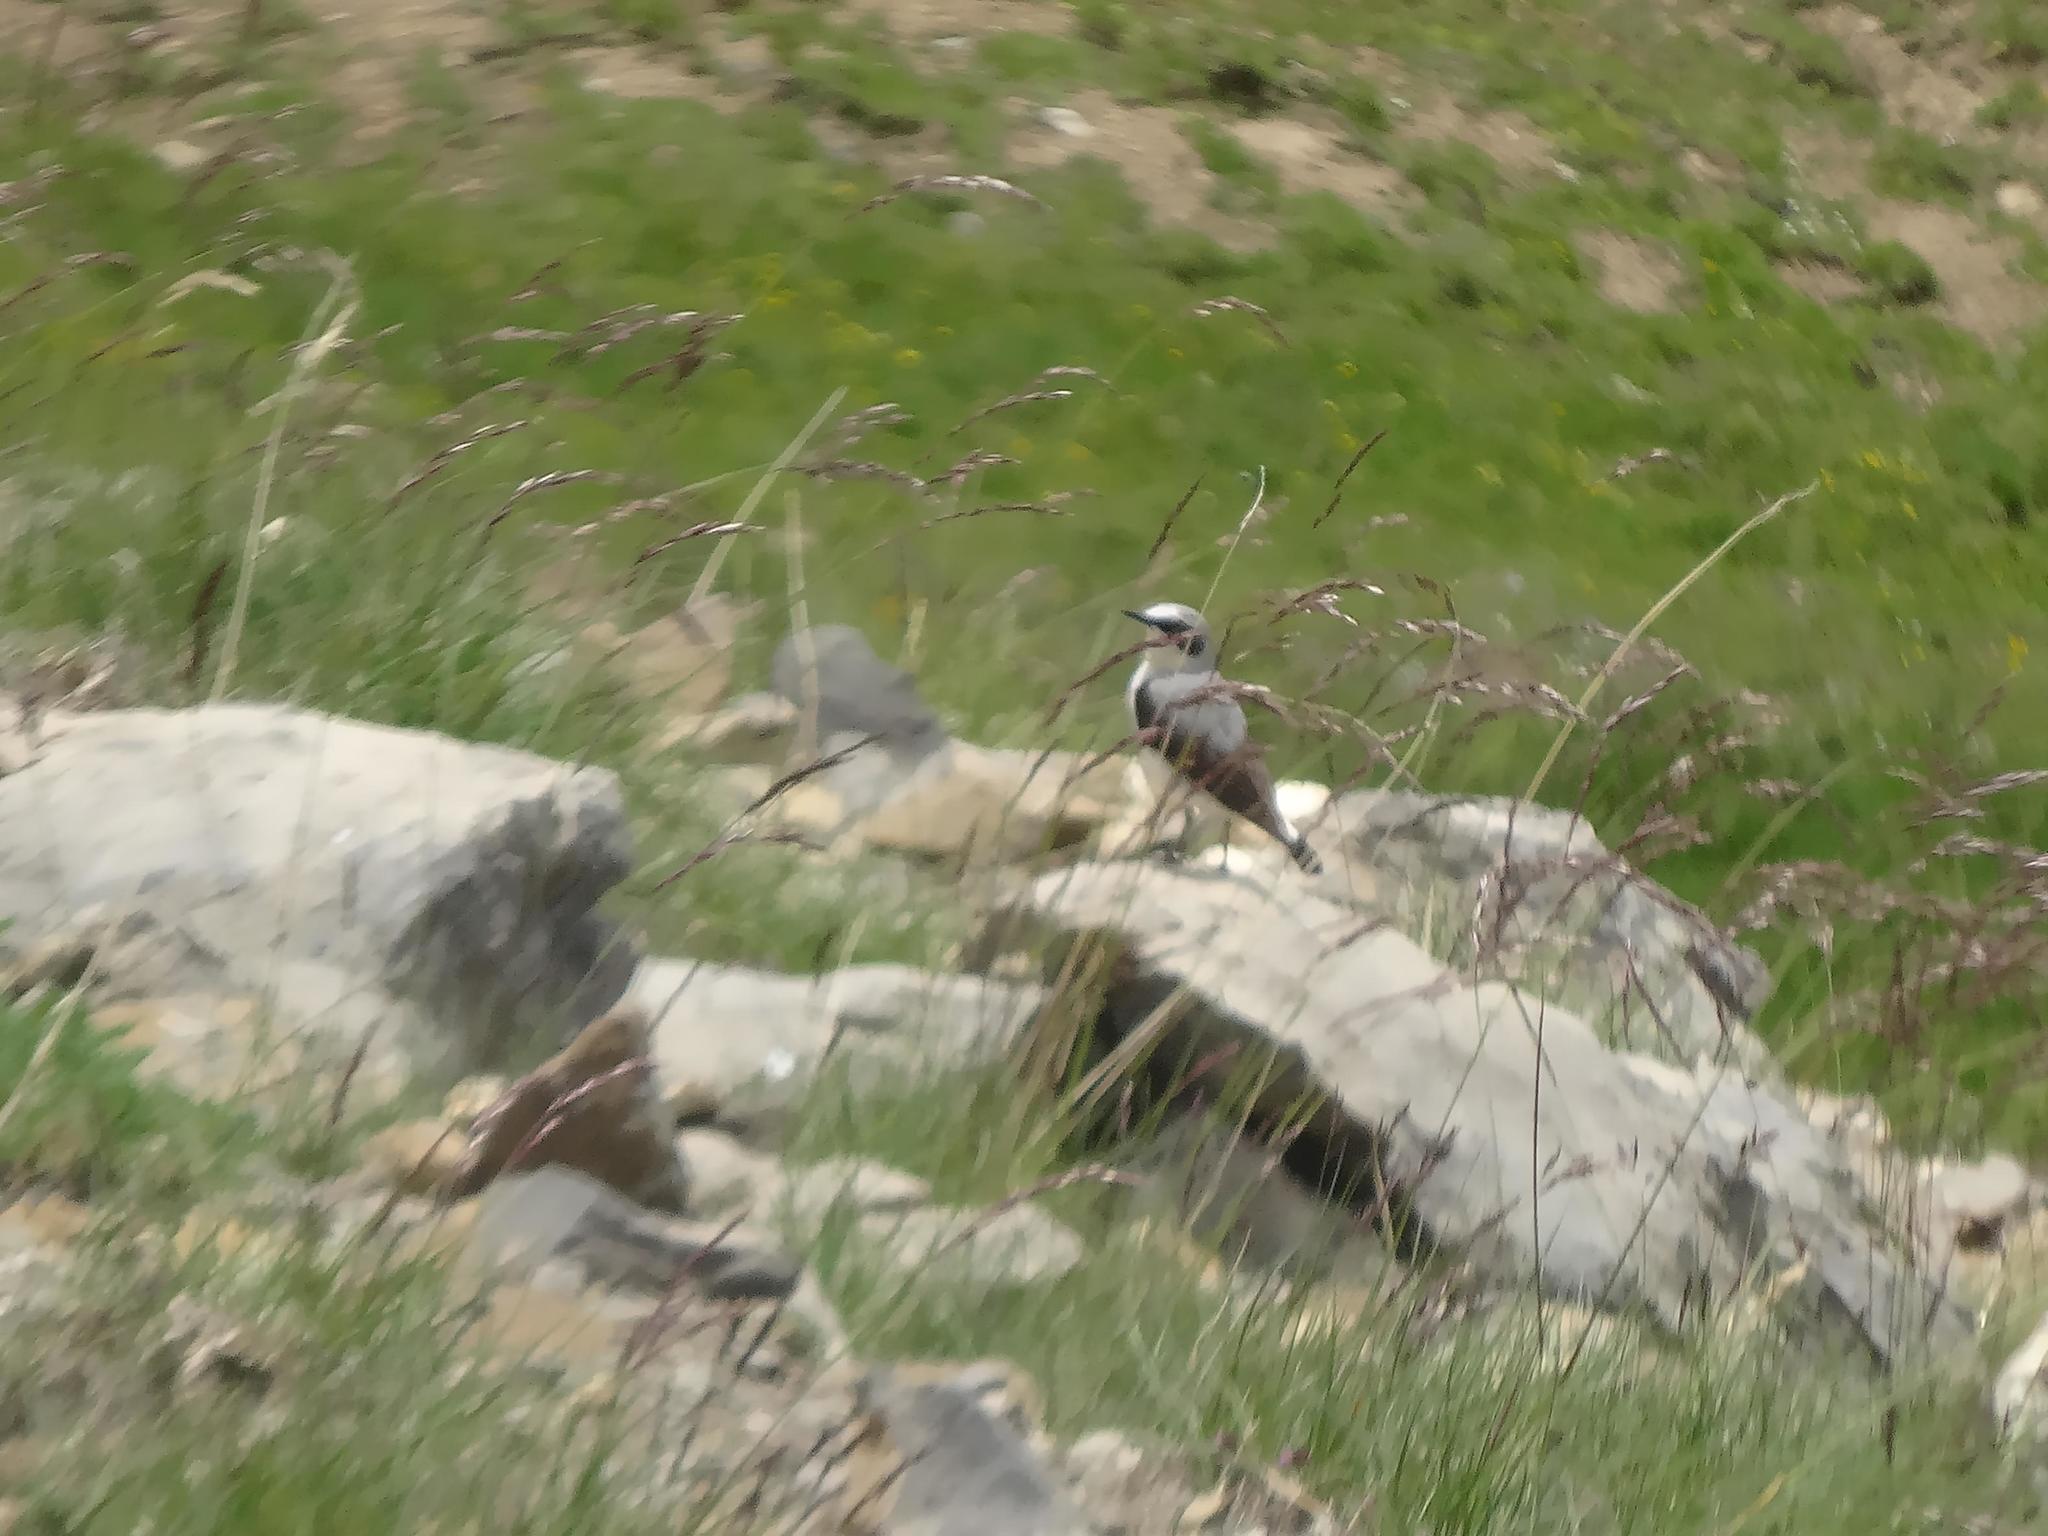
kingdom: Animalia
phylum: Chordata
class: Aves
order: Passeriformes
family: Muscicapidae
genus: Oenanthe
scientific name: Oenanthe oenanthe
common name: Northern wheatear
